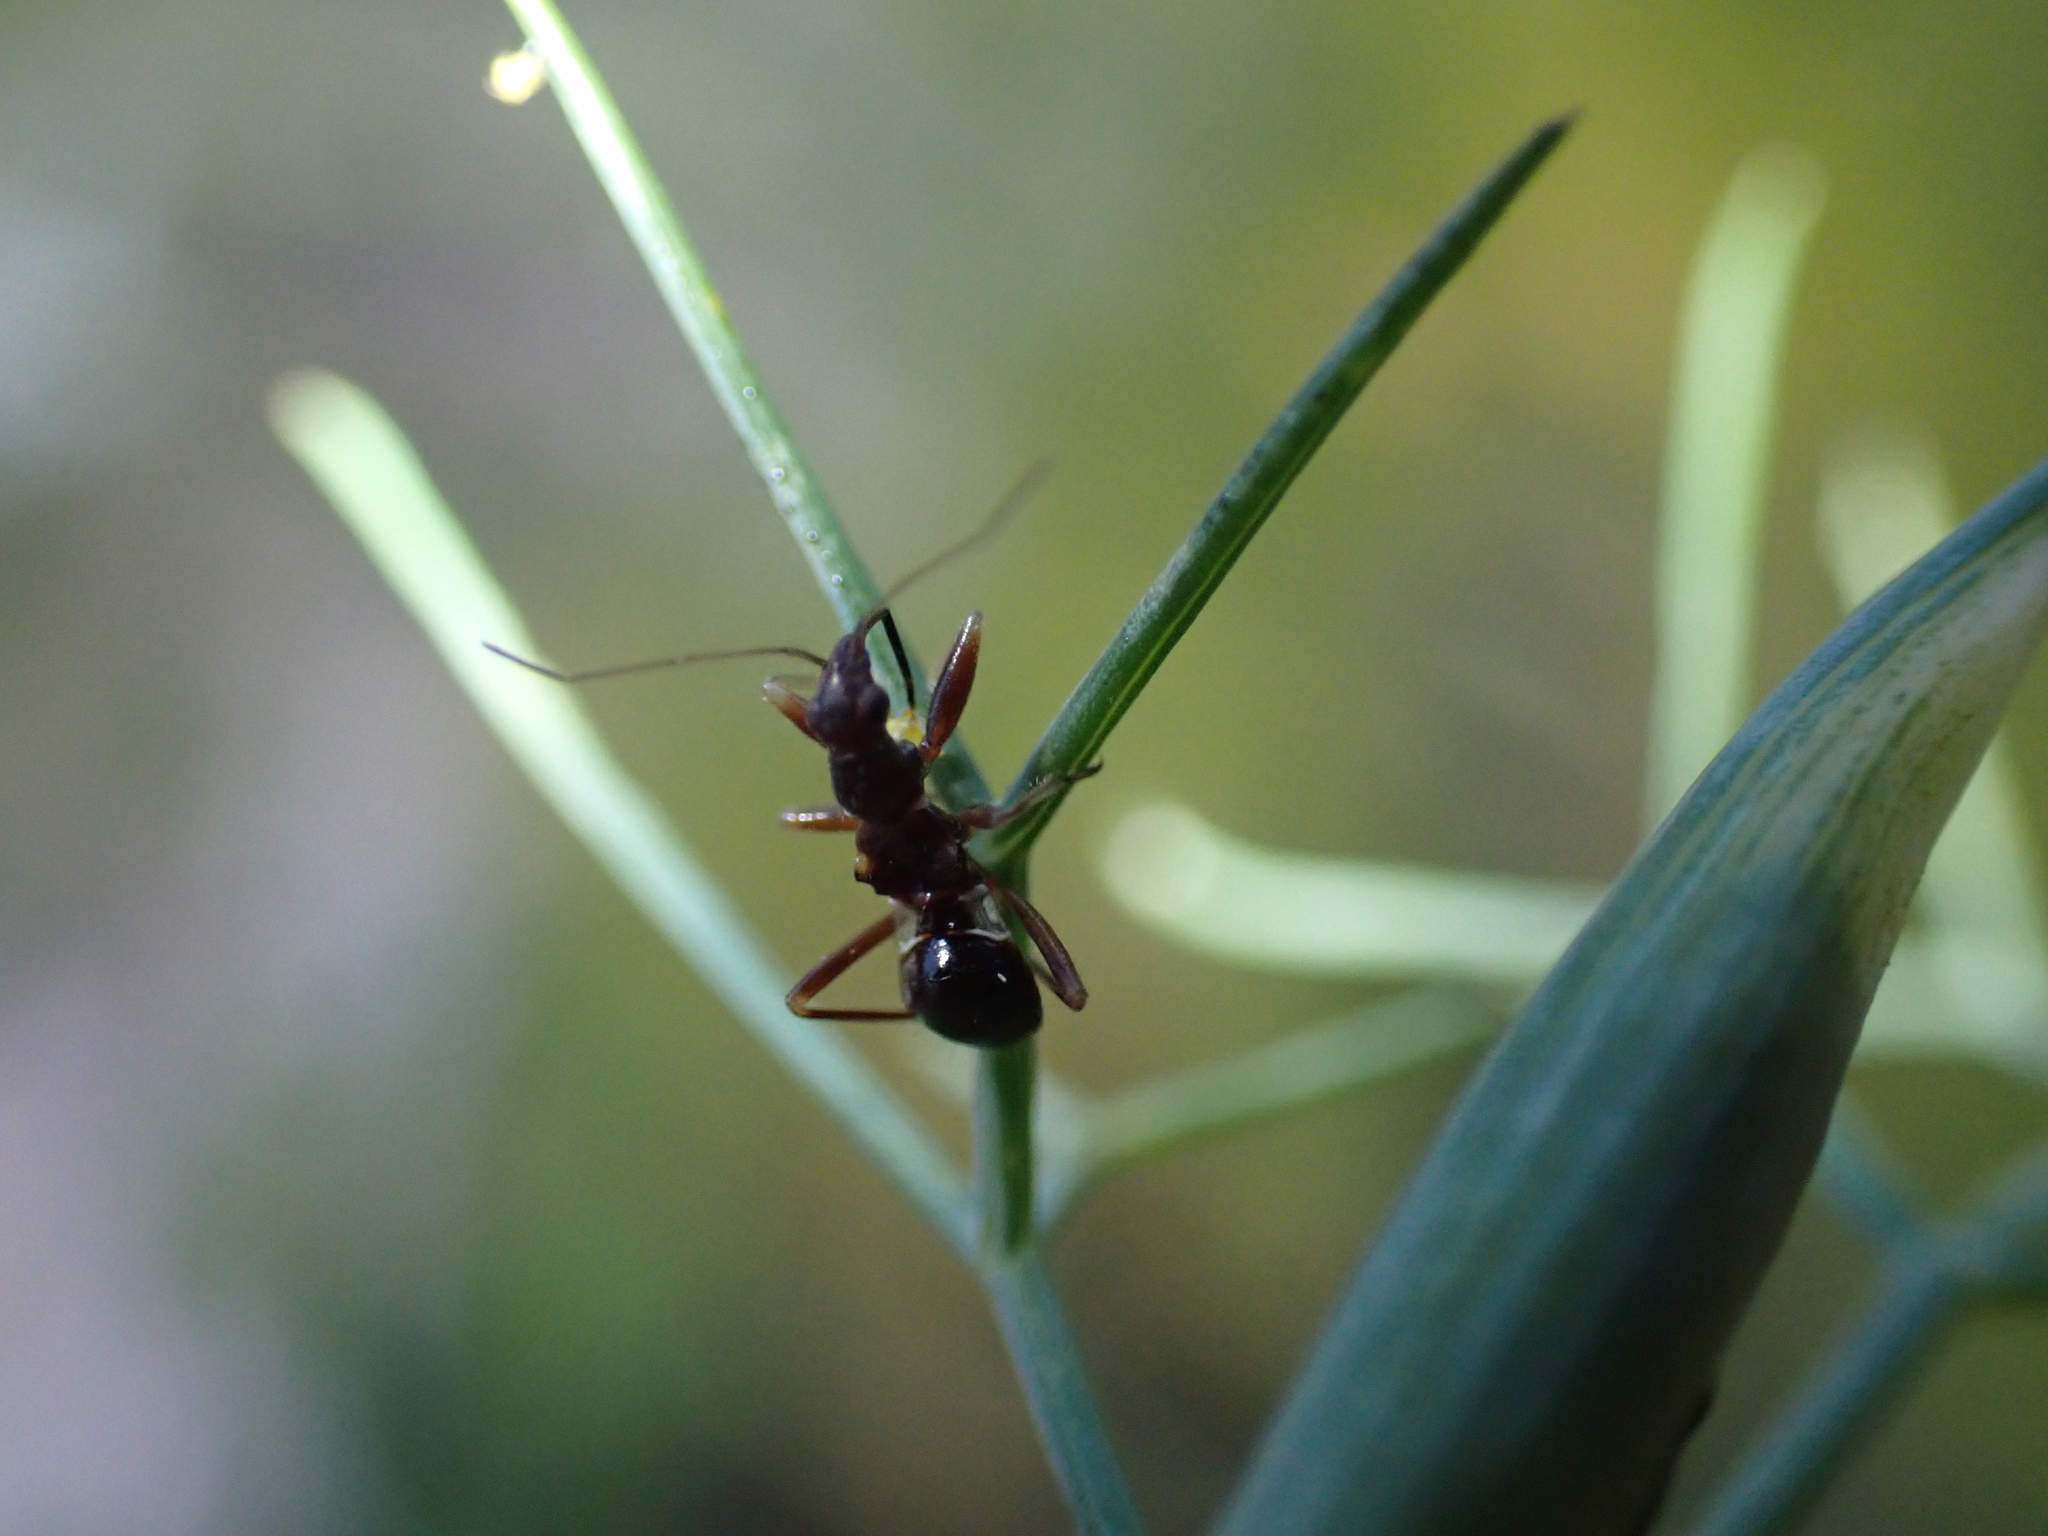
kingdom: Animalia
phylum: Arthropoda
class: Insecta
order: Hemiptera
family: Nabidae
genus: Himacerus
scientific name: Himacerus mirmicoides
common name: Ant damsel bug
